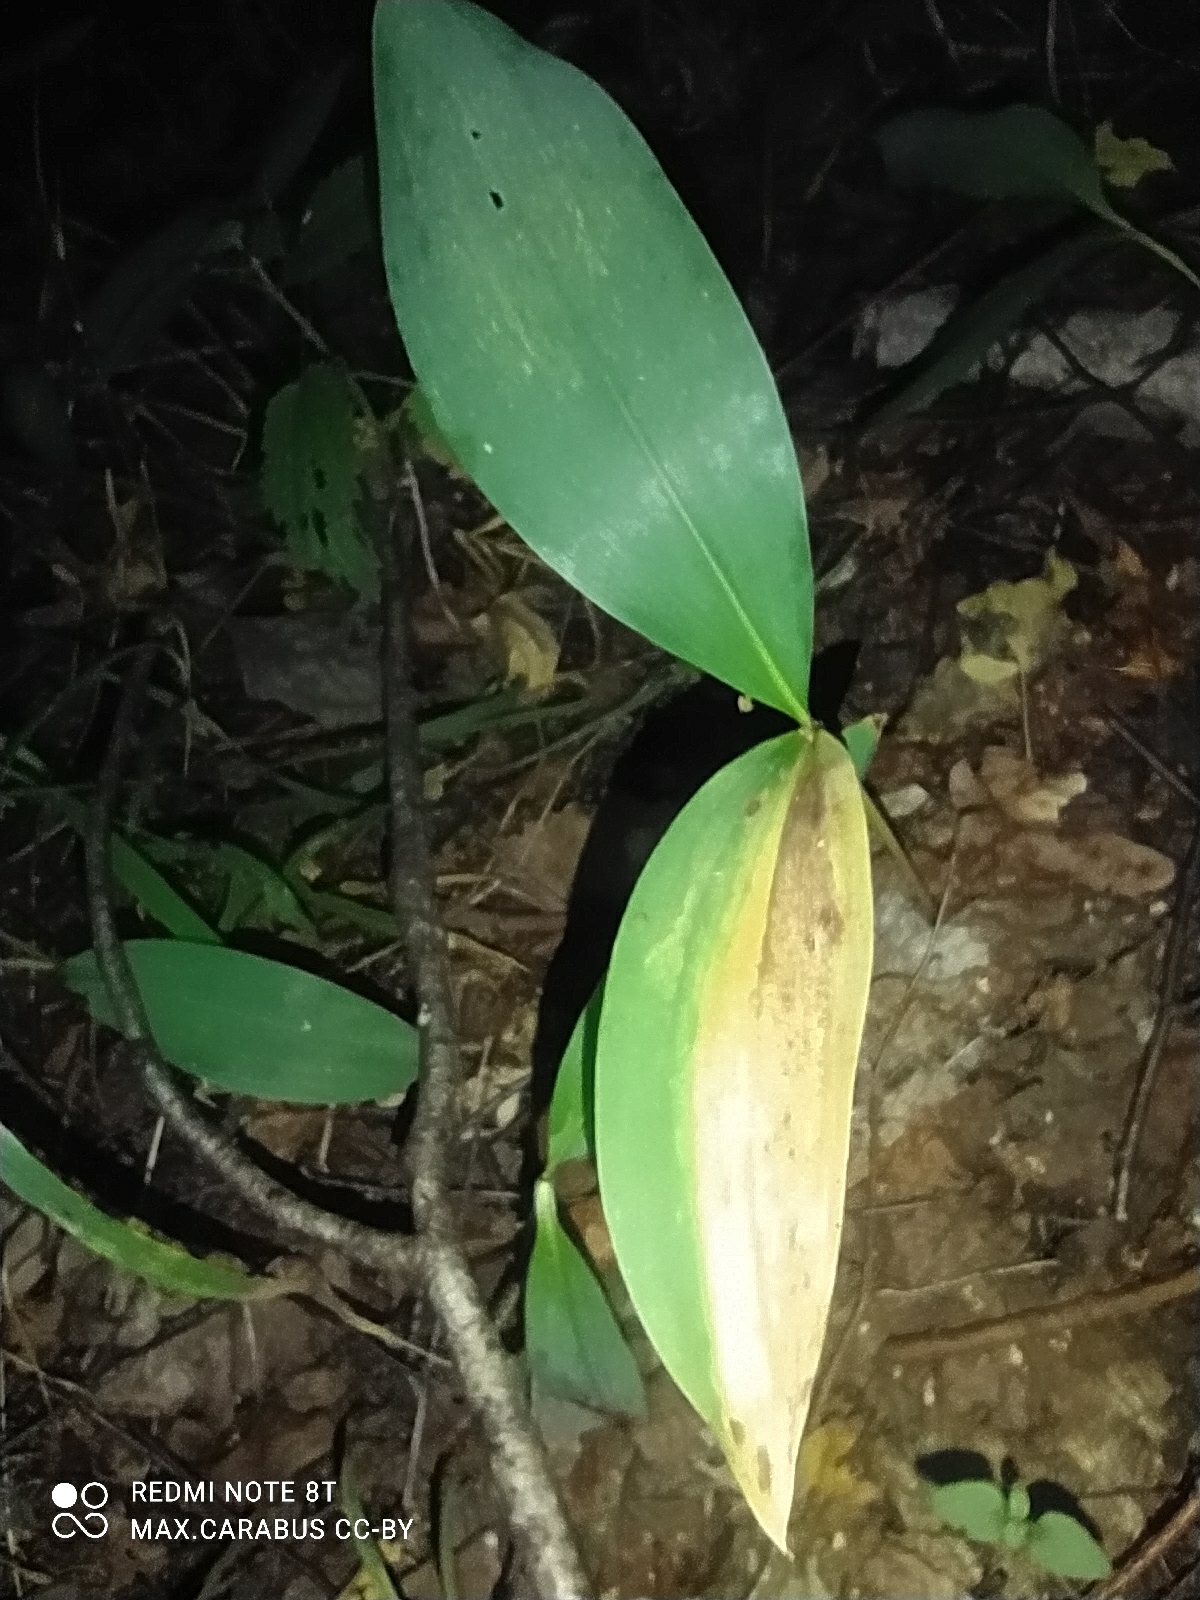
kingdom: Plantae
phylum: Tracheophyta
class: Liliopsida
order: Asparagales
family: Asparagaceae
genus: Convallaria
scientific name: Convallaria majalis
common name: Lily-of-the-valley
